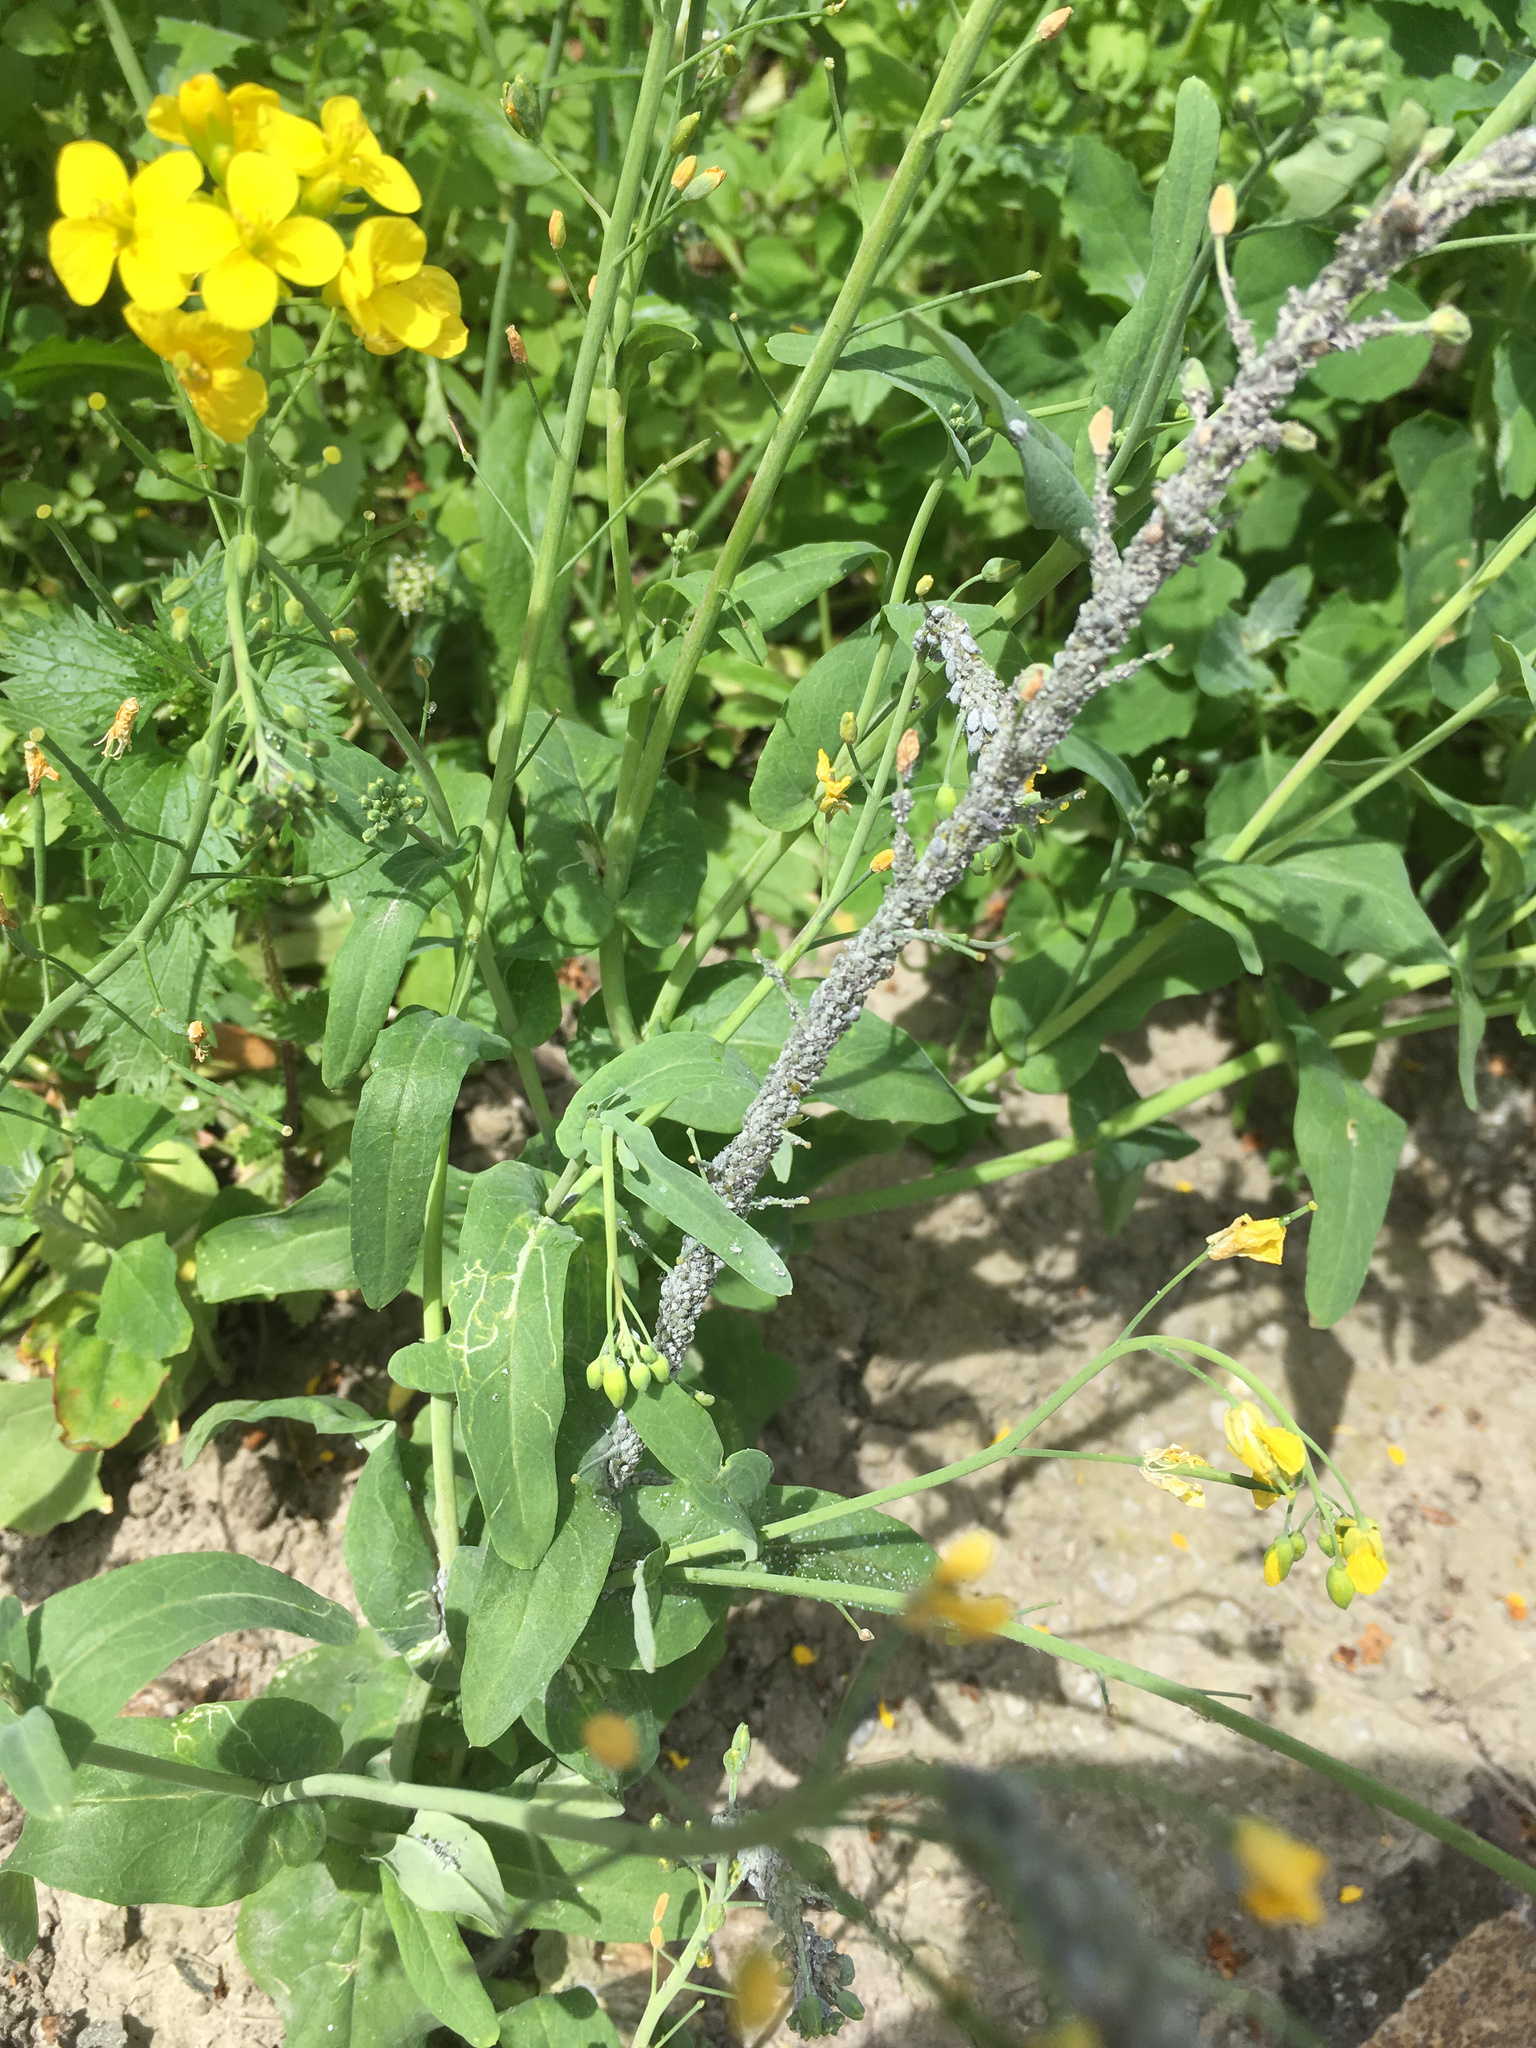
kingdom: Animalia
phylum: Arthropoda
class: Insecta
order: Hemiptera
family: Aphididae
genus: Brevicoryne
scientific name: Brevicoryne brassicae
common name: Cabbage aphid
